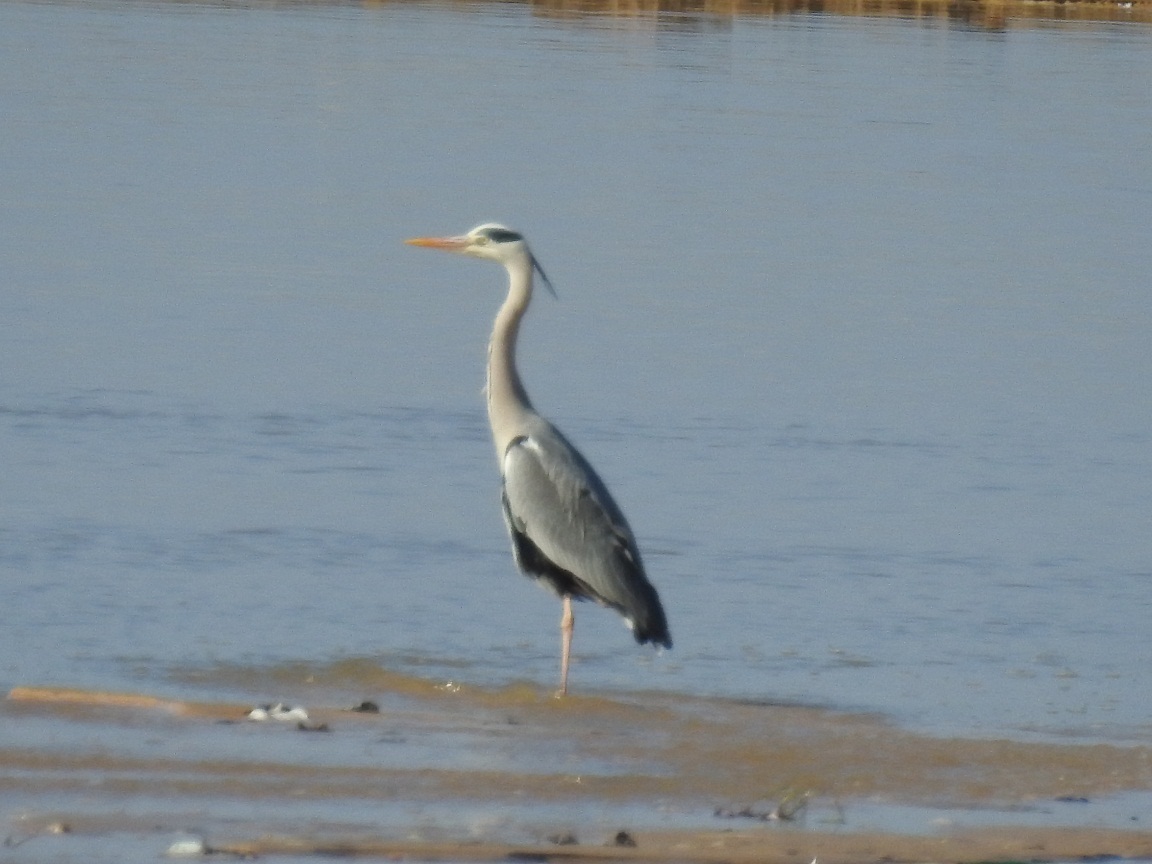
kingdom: Animalia
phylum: Chordata
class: Aves
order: Pelecaniformes
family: Ardeidae
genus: Ardea
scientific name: Ardea cinerea
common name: Grey heron
